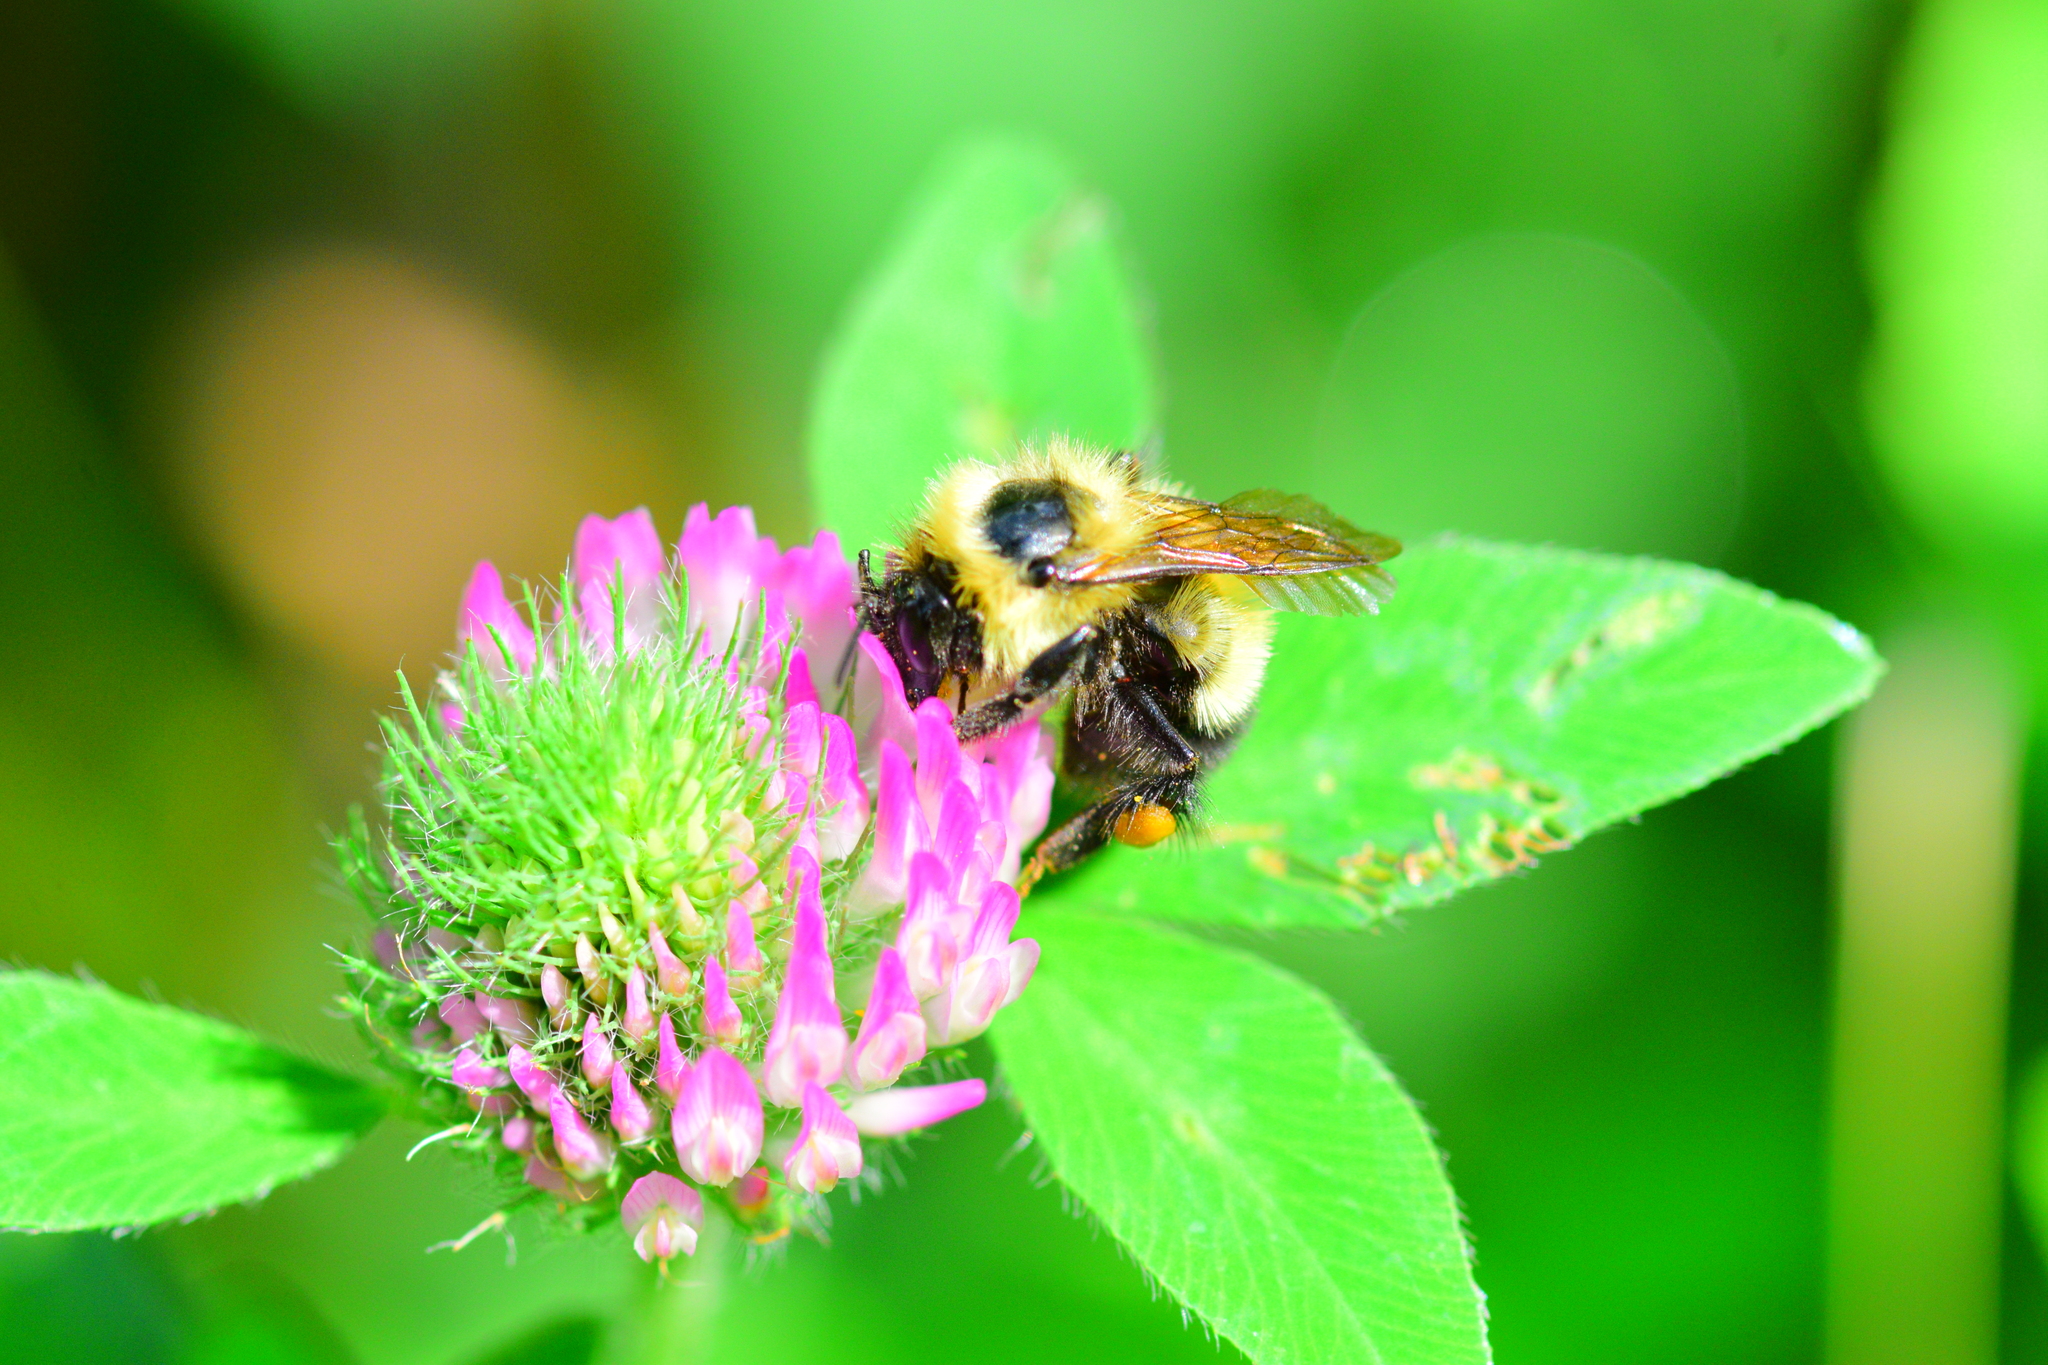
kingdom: Animalia
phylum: Arthropoda
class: Insecta
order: Hymenoptera
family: Apidae
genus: Bombus
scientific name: Bombus vagans
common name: Half-black bumble bee
